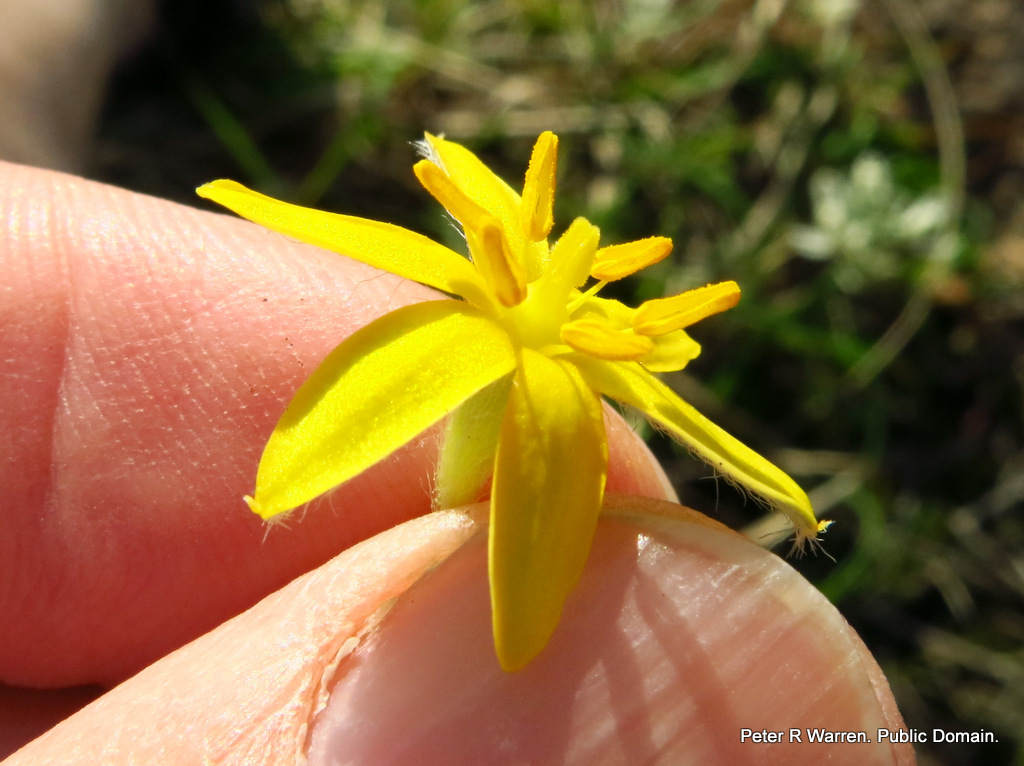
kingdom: Plantae
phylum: Tracheophyta
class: Liliopsida
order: Asparagales
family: Hypoxidaceae
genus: Hypoxis
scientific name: Hypoxis angustifolia
